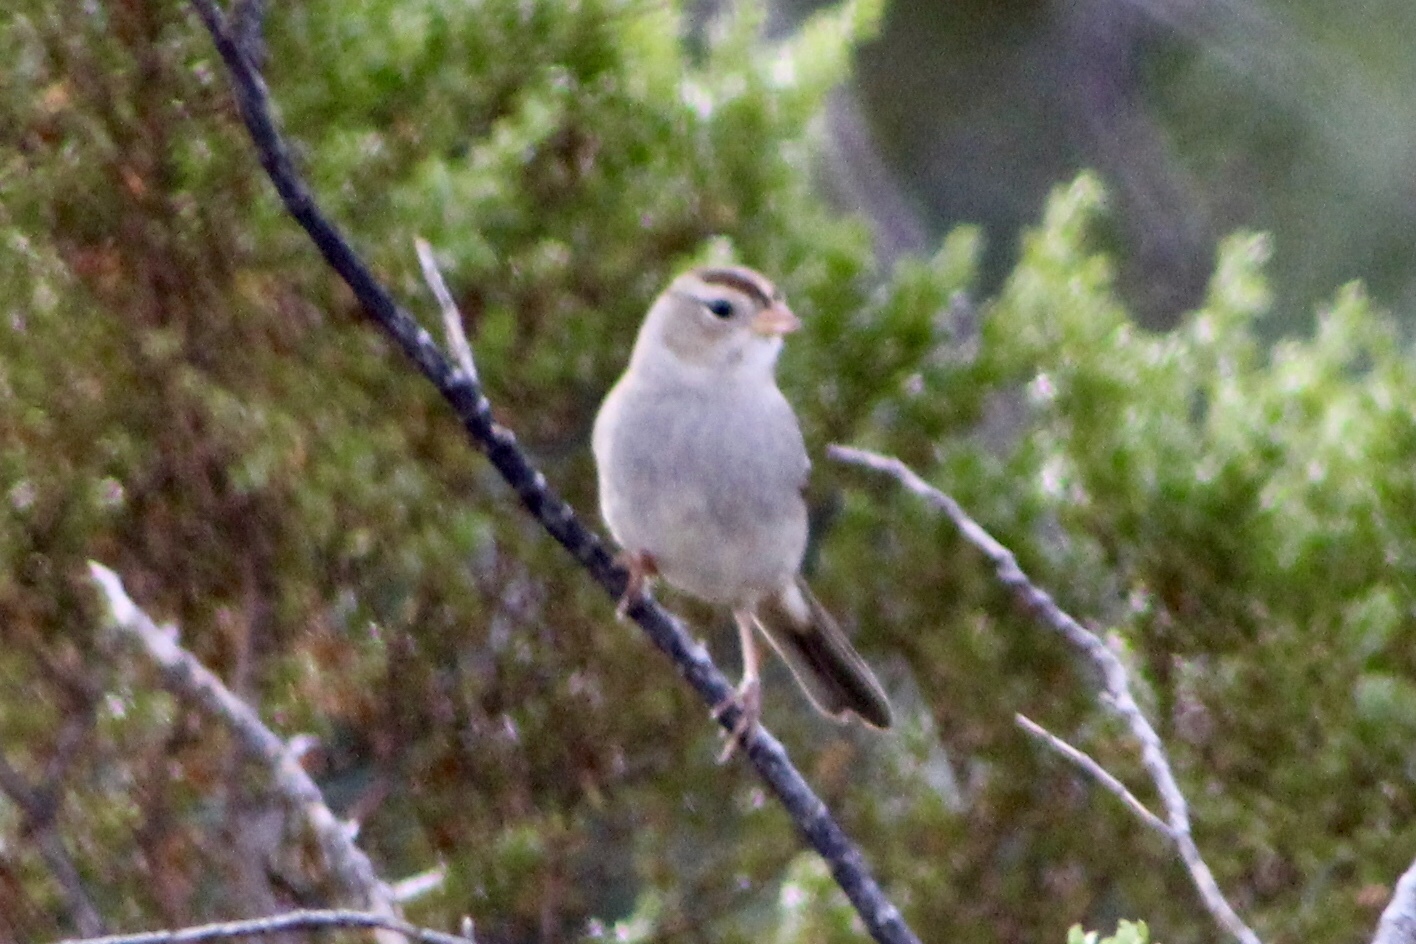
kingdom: Animalia
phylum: Chordata
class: Aves
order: Passeriformes
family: Passerellidae
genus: Zonotrichia
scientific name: Zonotrichia leucophrys
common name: White-crowned sparrow
